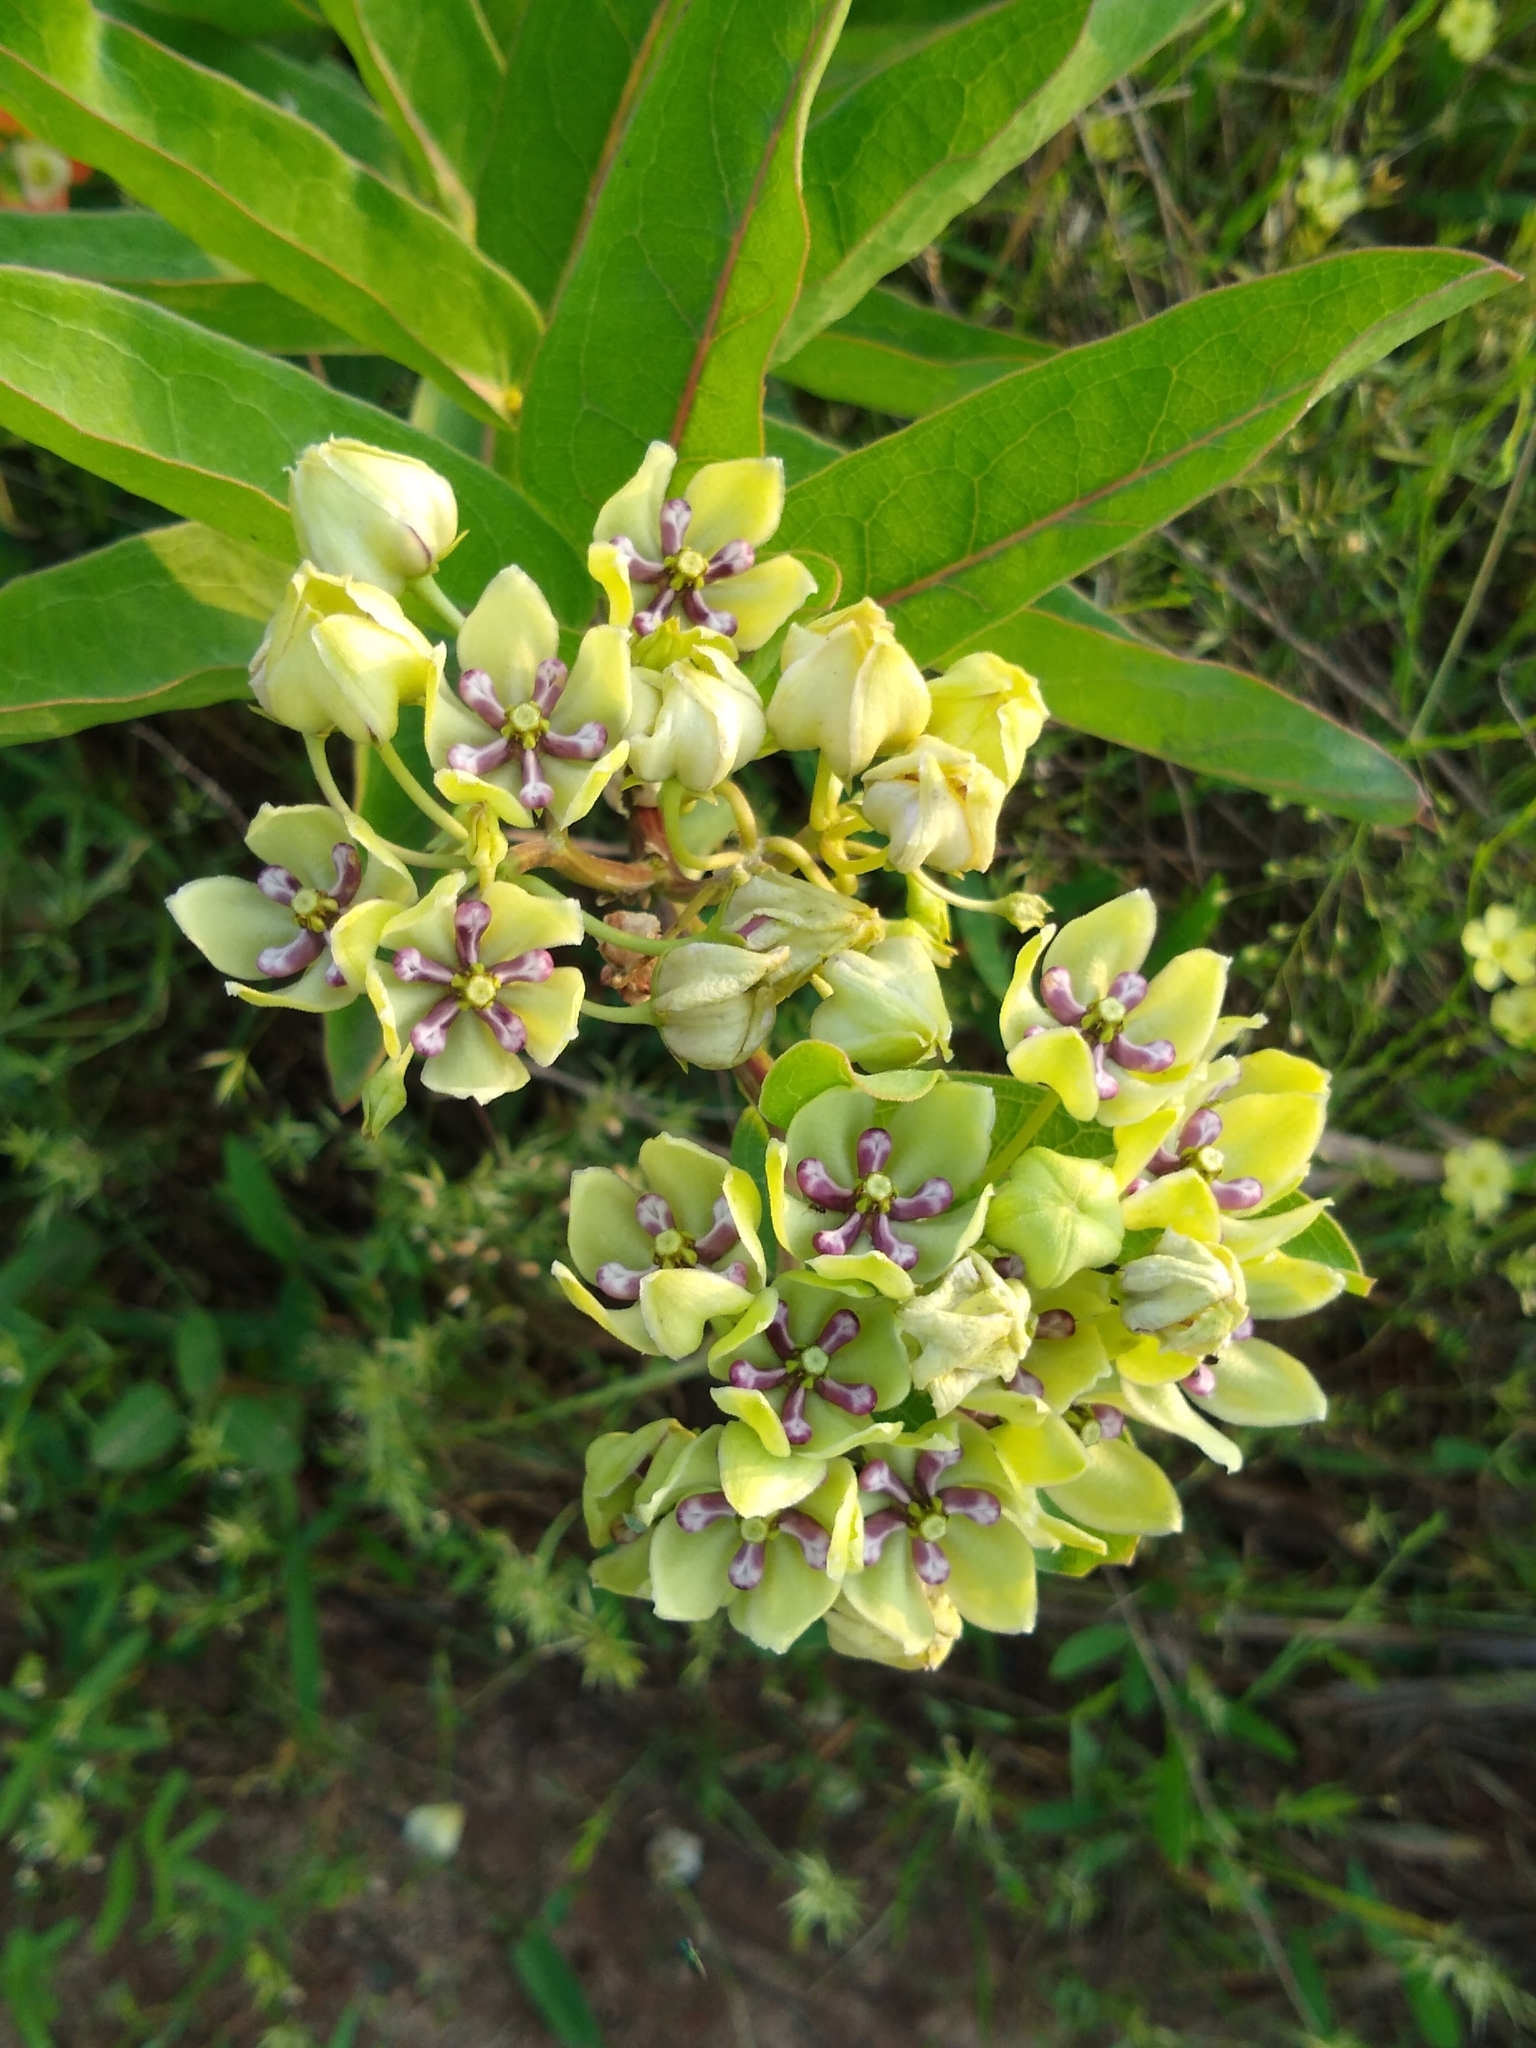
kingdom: Plantae
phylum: Tracheophyta
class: Magnoliopsida
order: Gentianales
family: Apocynaceae
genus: Asclepias
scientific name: Asclepias viridis
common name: Antelope-horns
